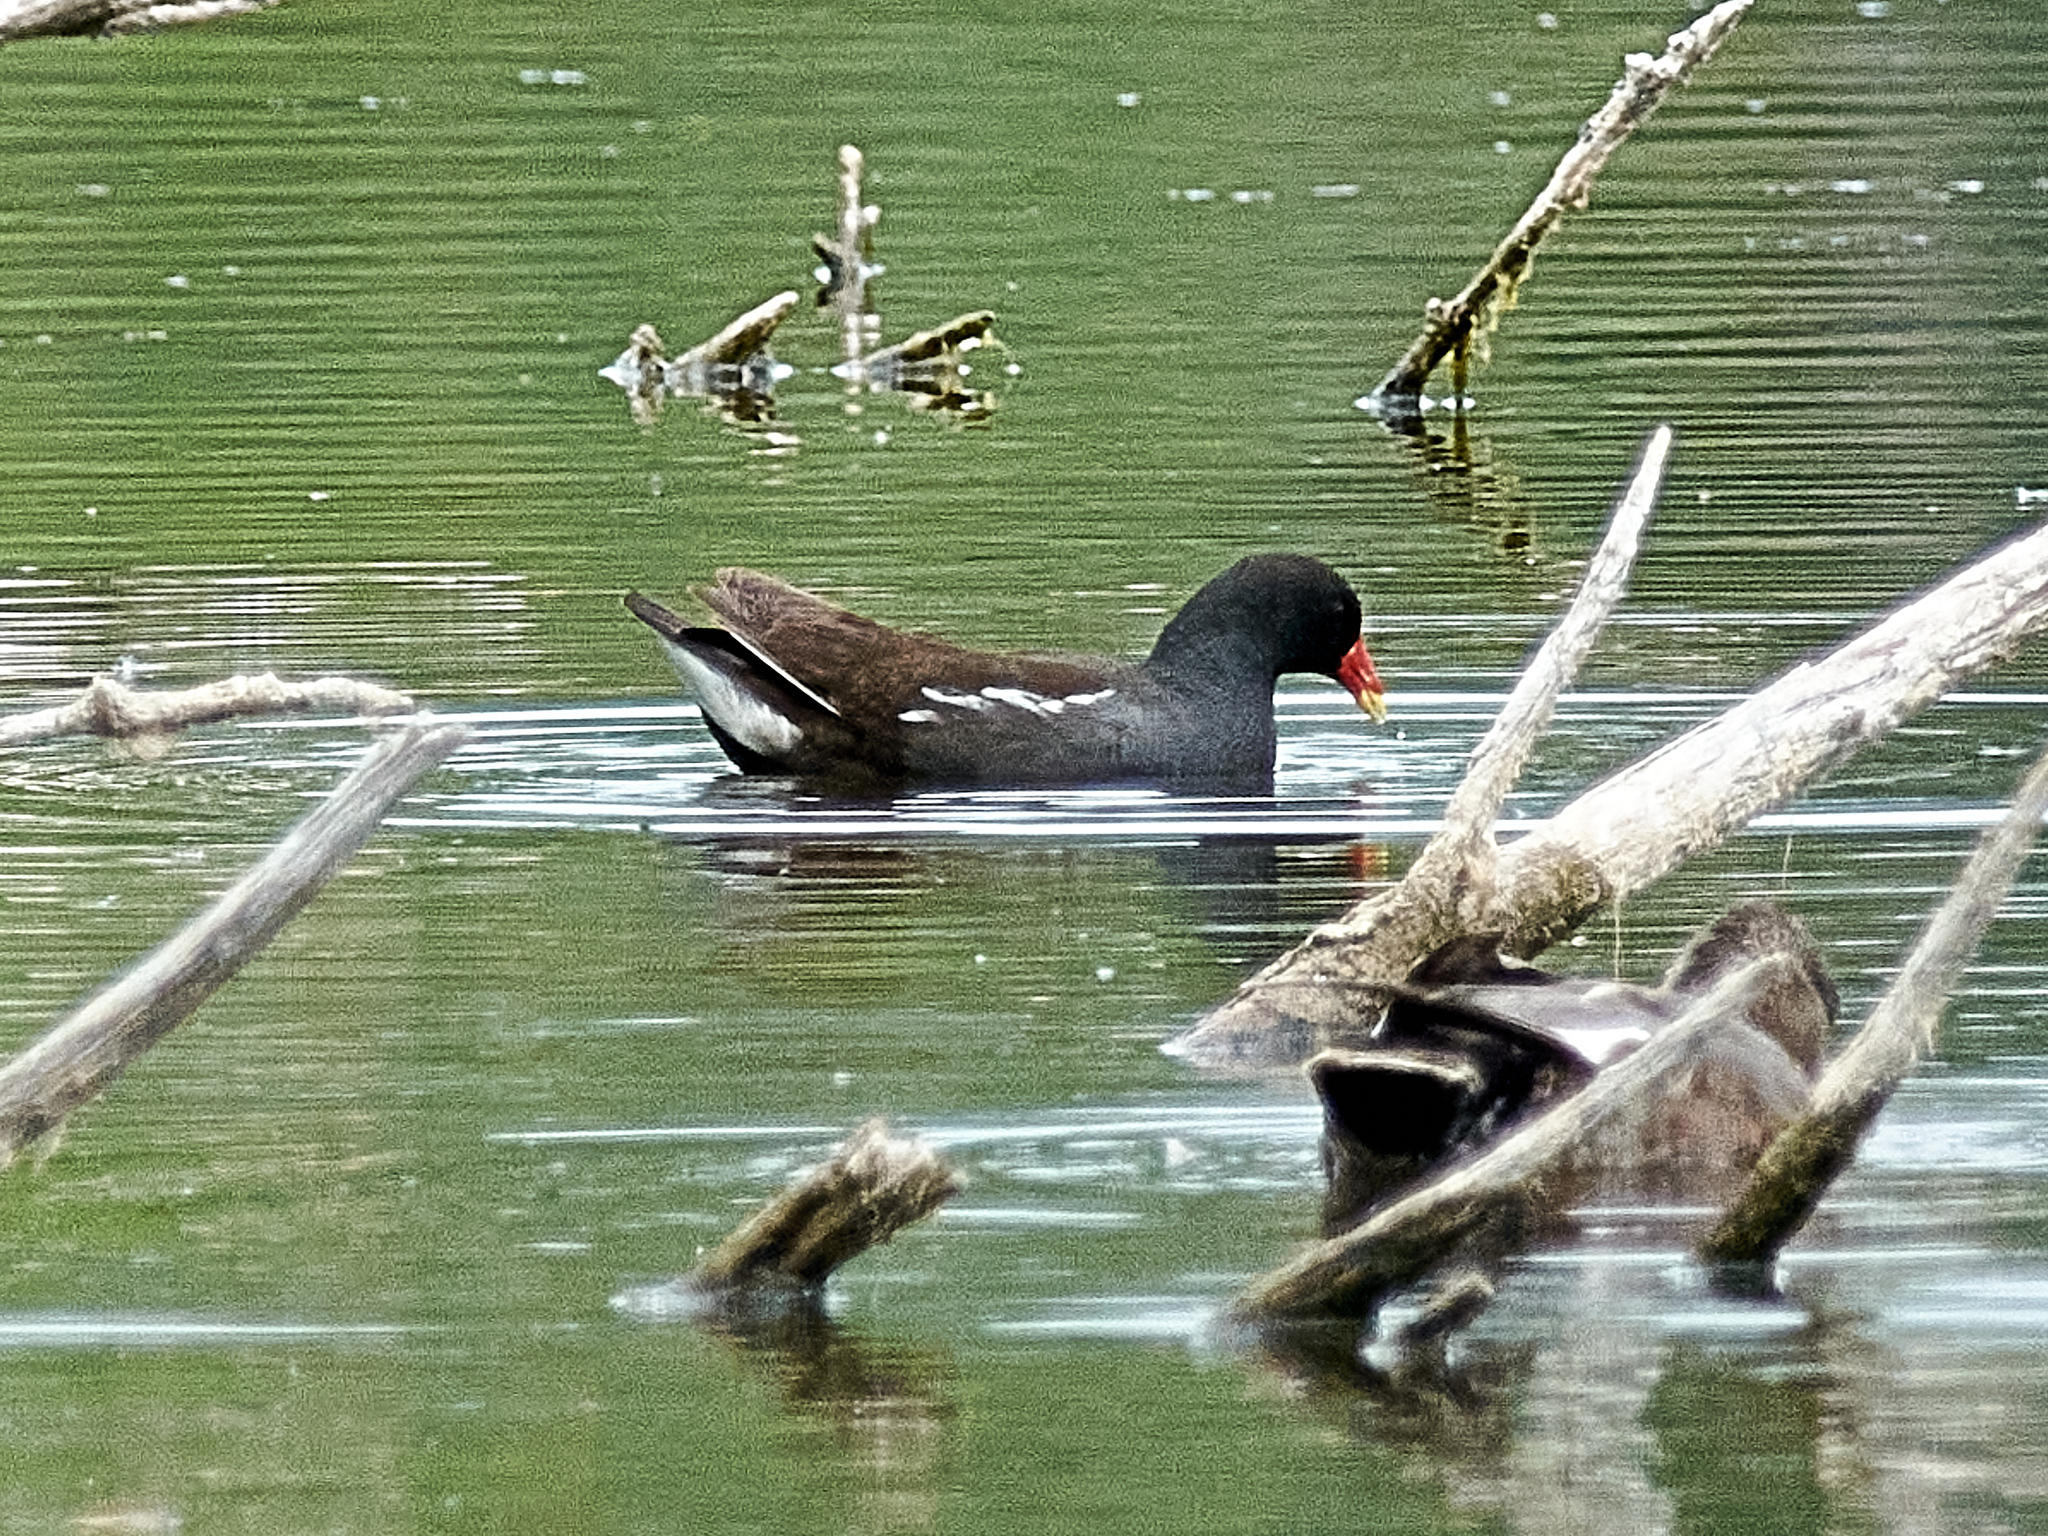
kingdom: Animalia
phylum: Chordata
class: Aves
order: Gruiformes
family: Rallidae
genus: Gallinula
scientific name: Gallinula chloropus
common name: Common moorhen
